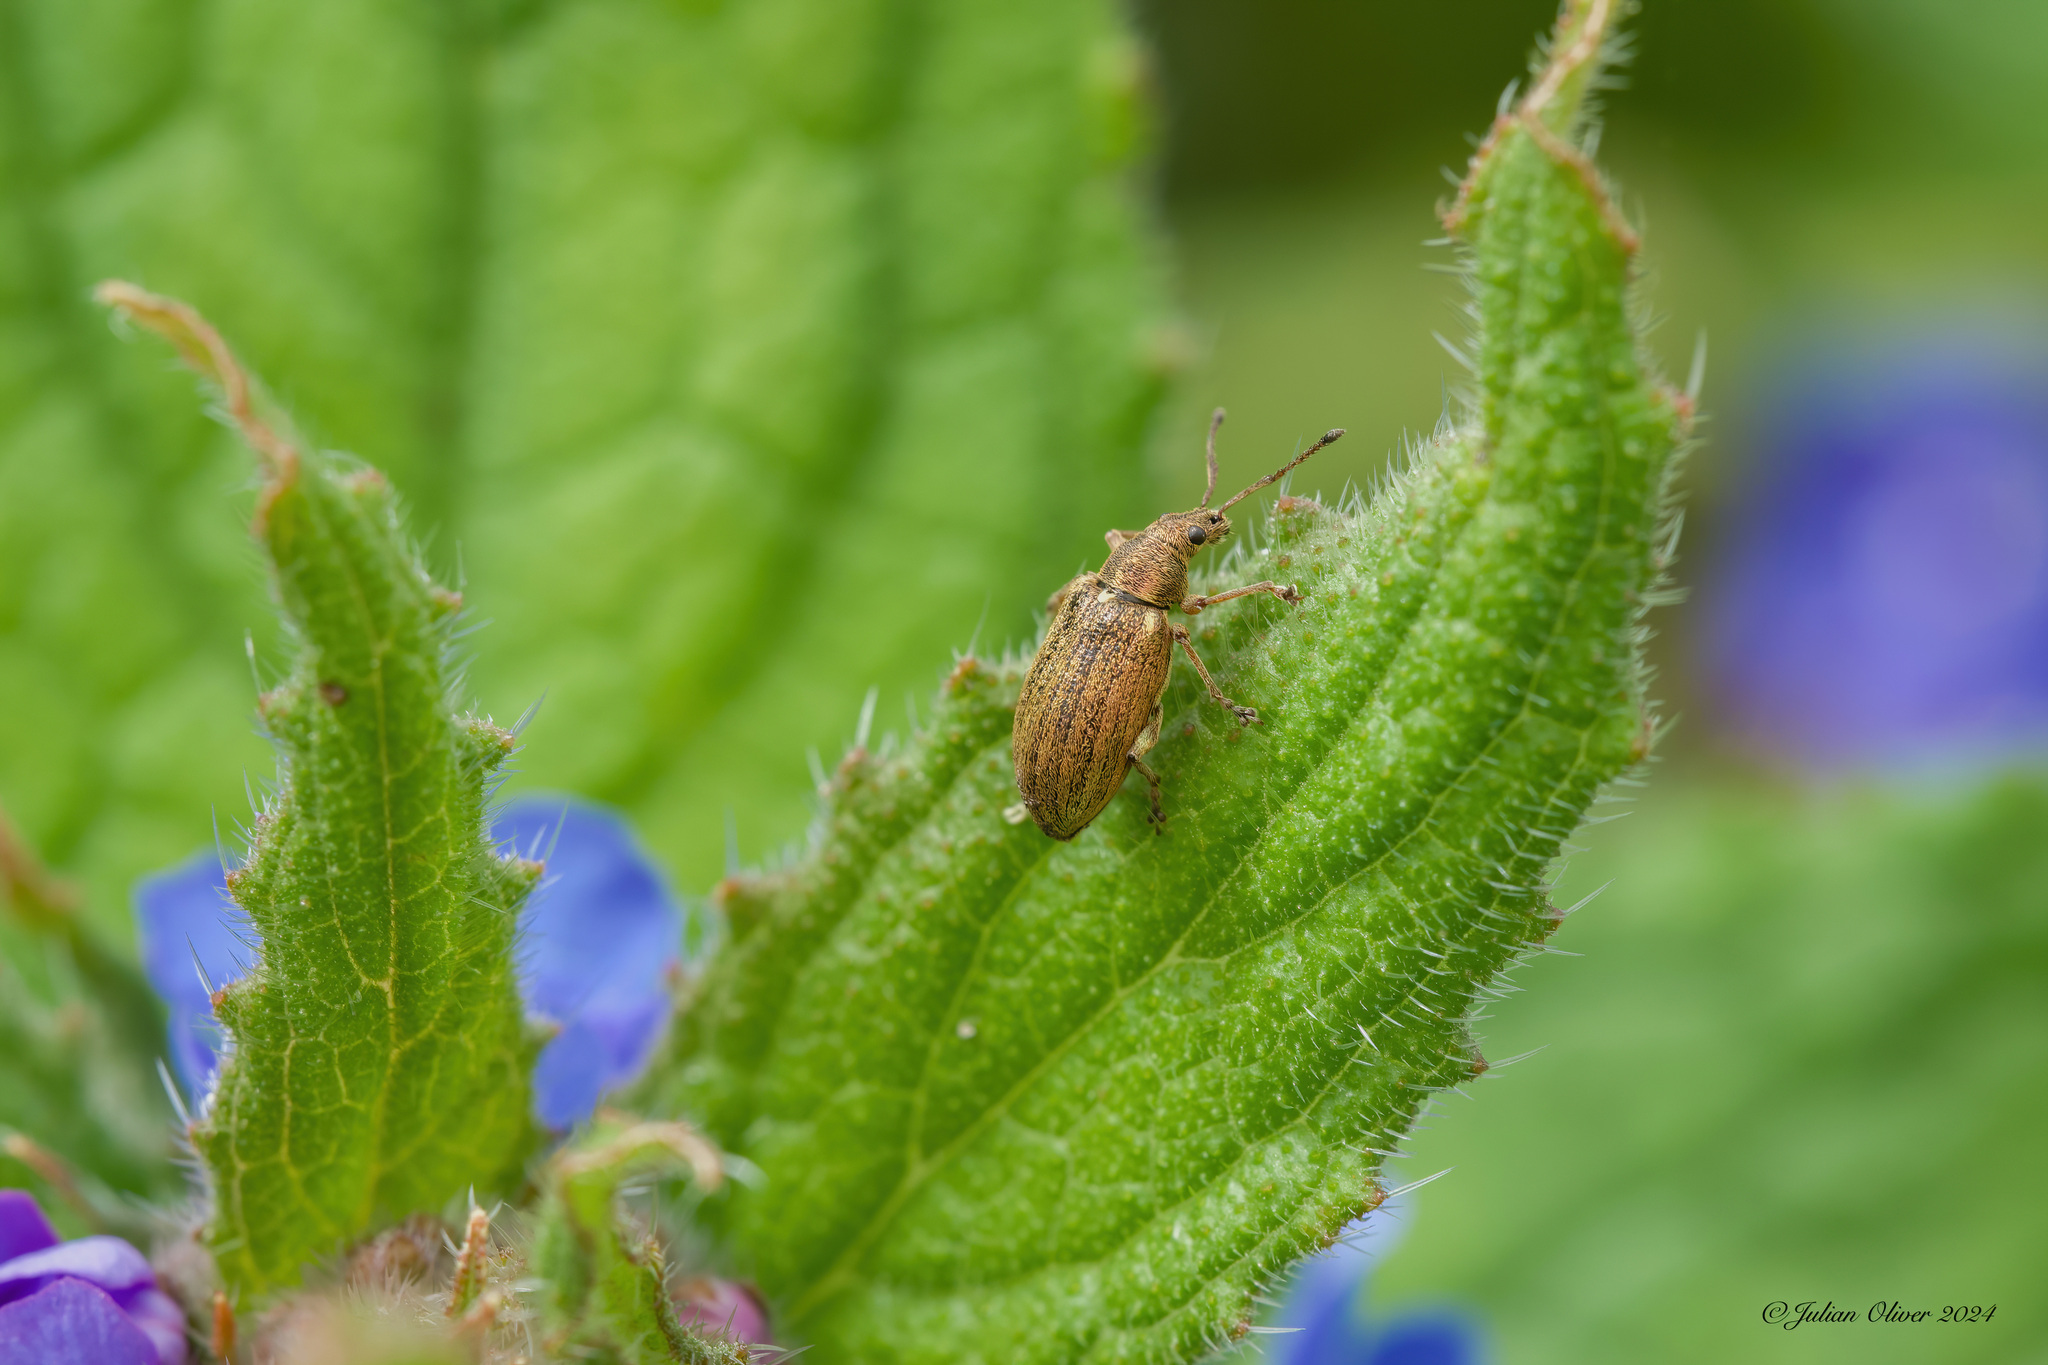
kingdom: Animalia
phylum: Arthropoda
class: Insecta
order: Coleoptera
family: Curculionidae
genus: Phyllobius
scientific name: Phyllobius pyri
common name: Common leaf weevil
